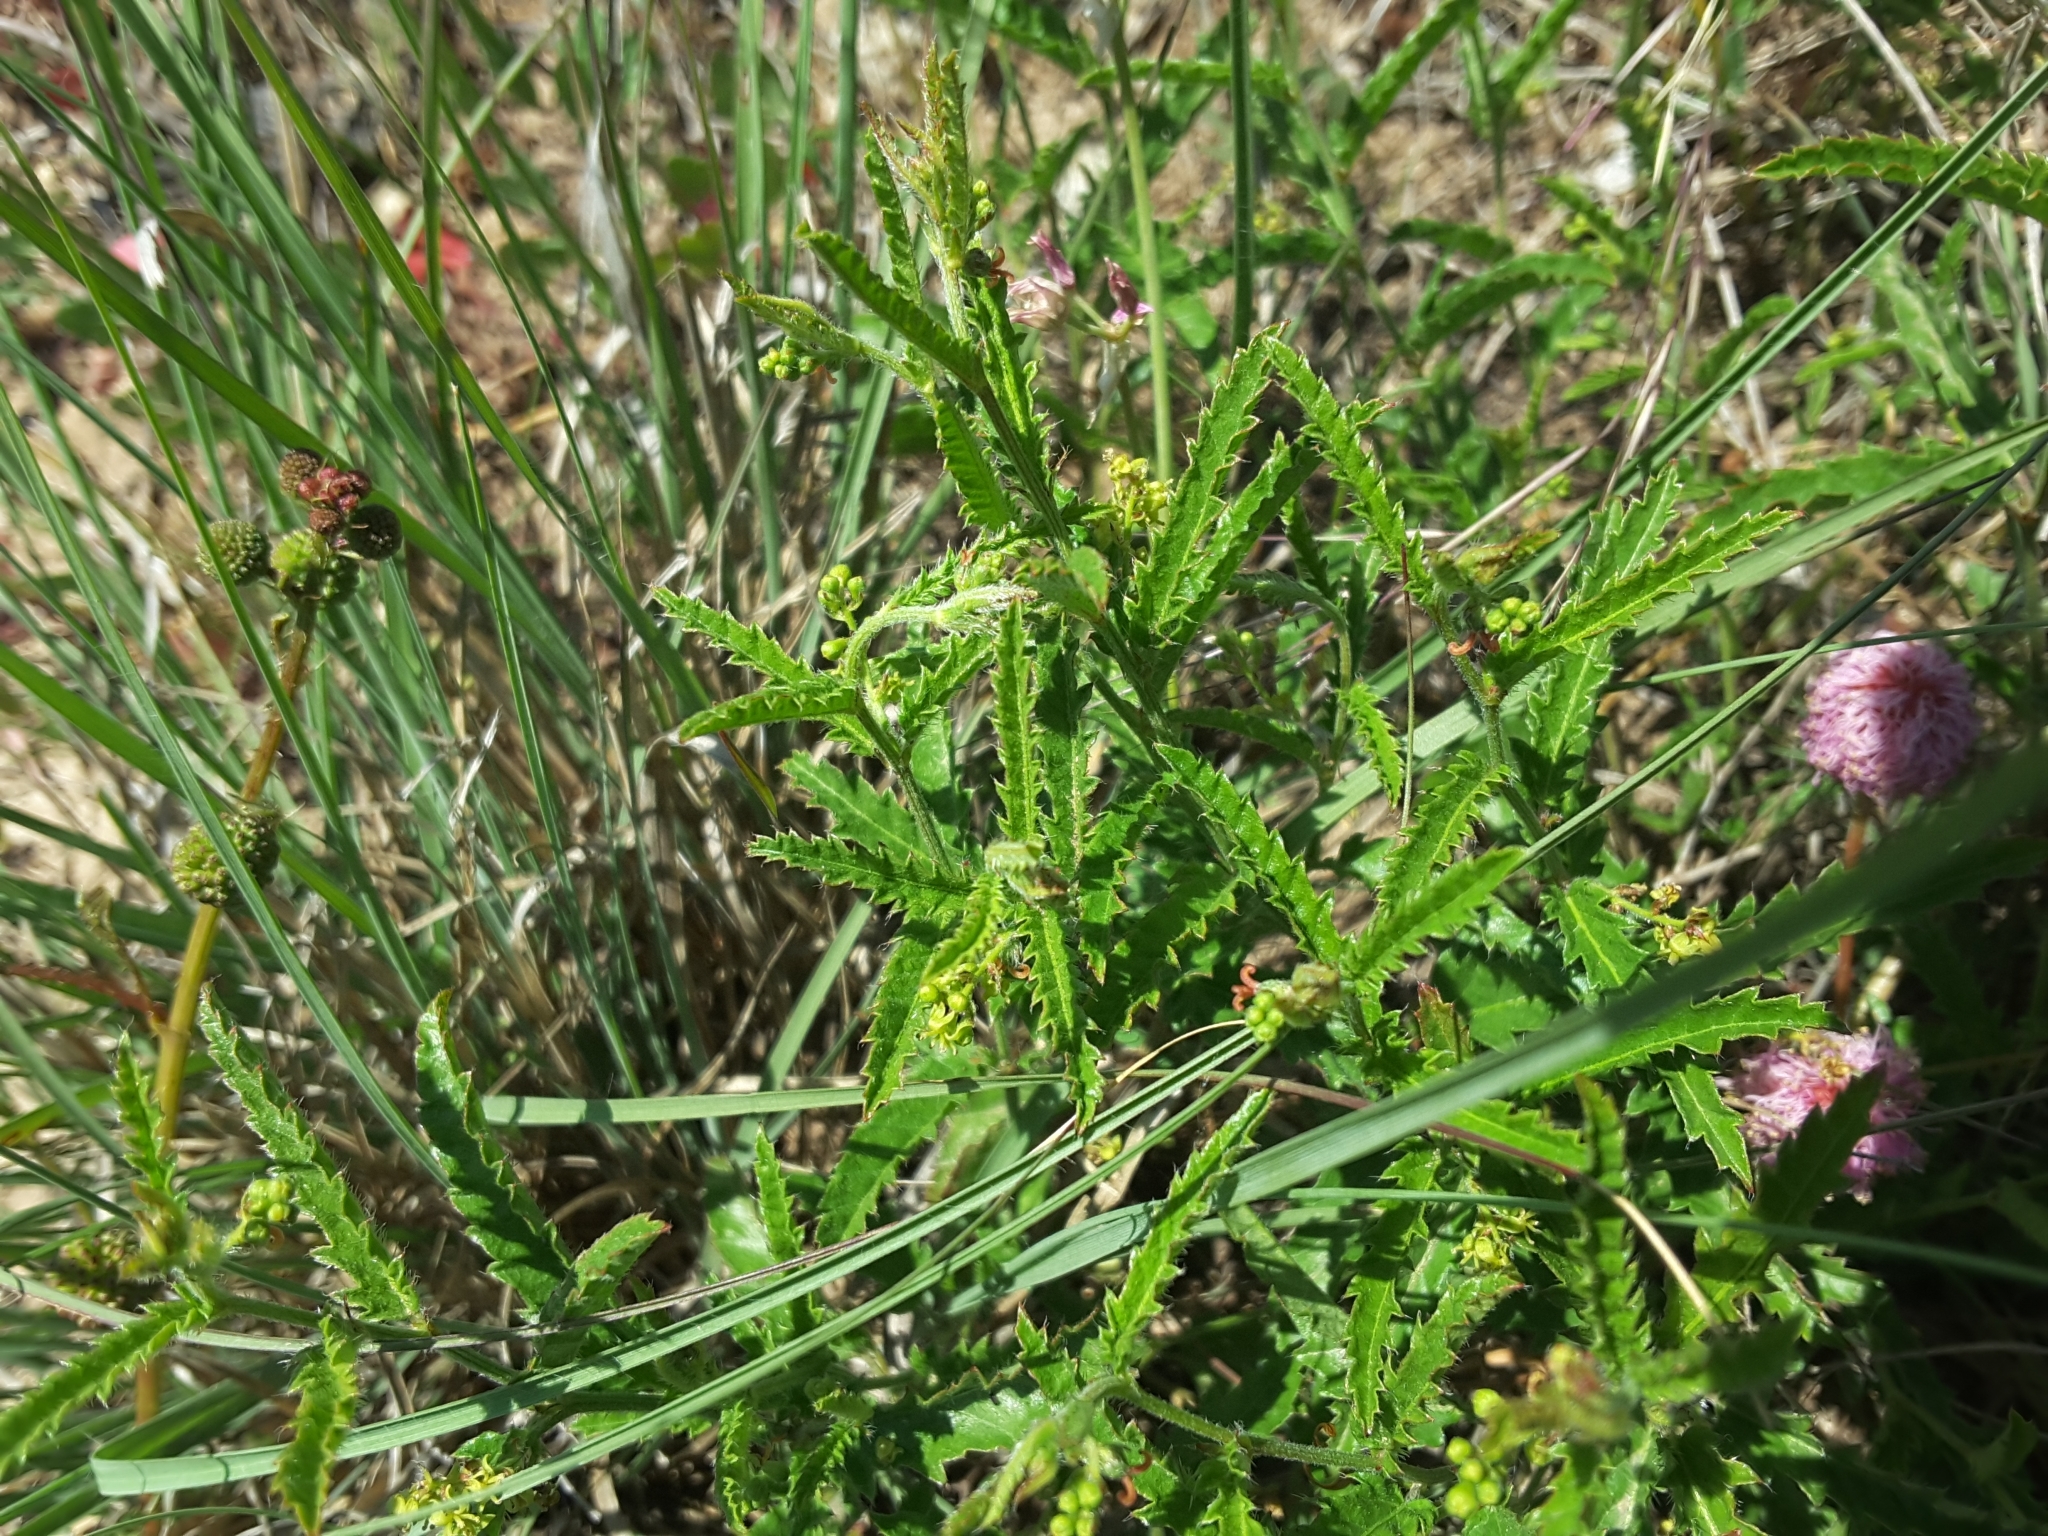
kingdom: Plantae
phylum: Tracheophyta
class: Magnoliopsida
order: Malpighiales
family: Euphorbiaceae
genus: Tragia
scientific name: Tragia ramosa
